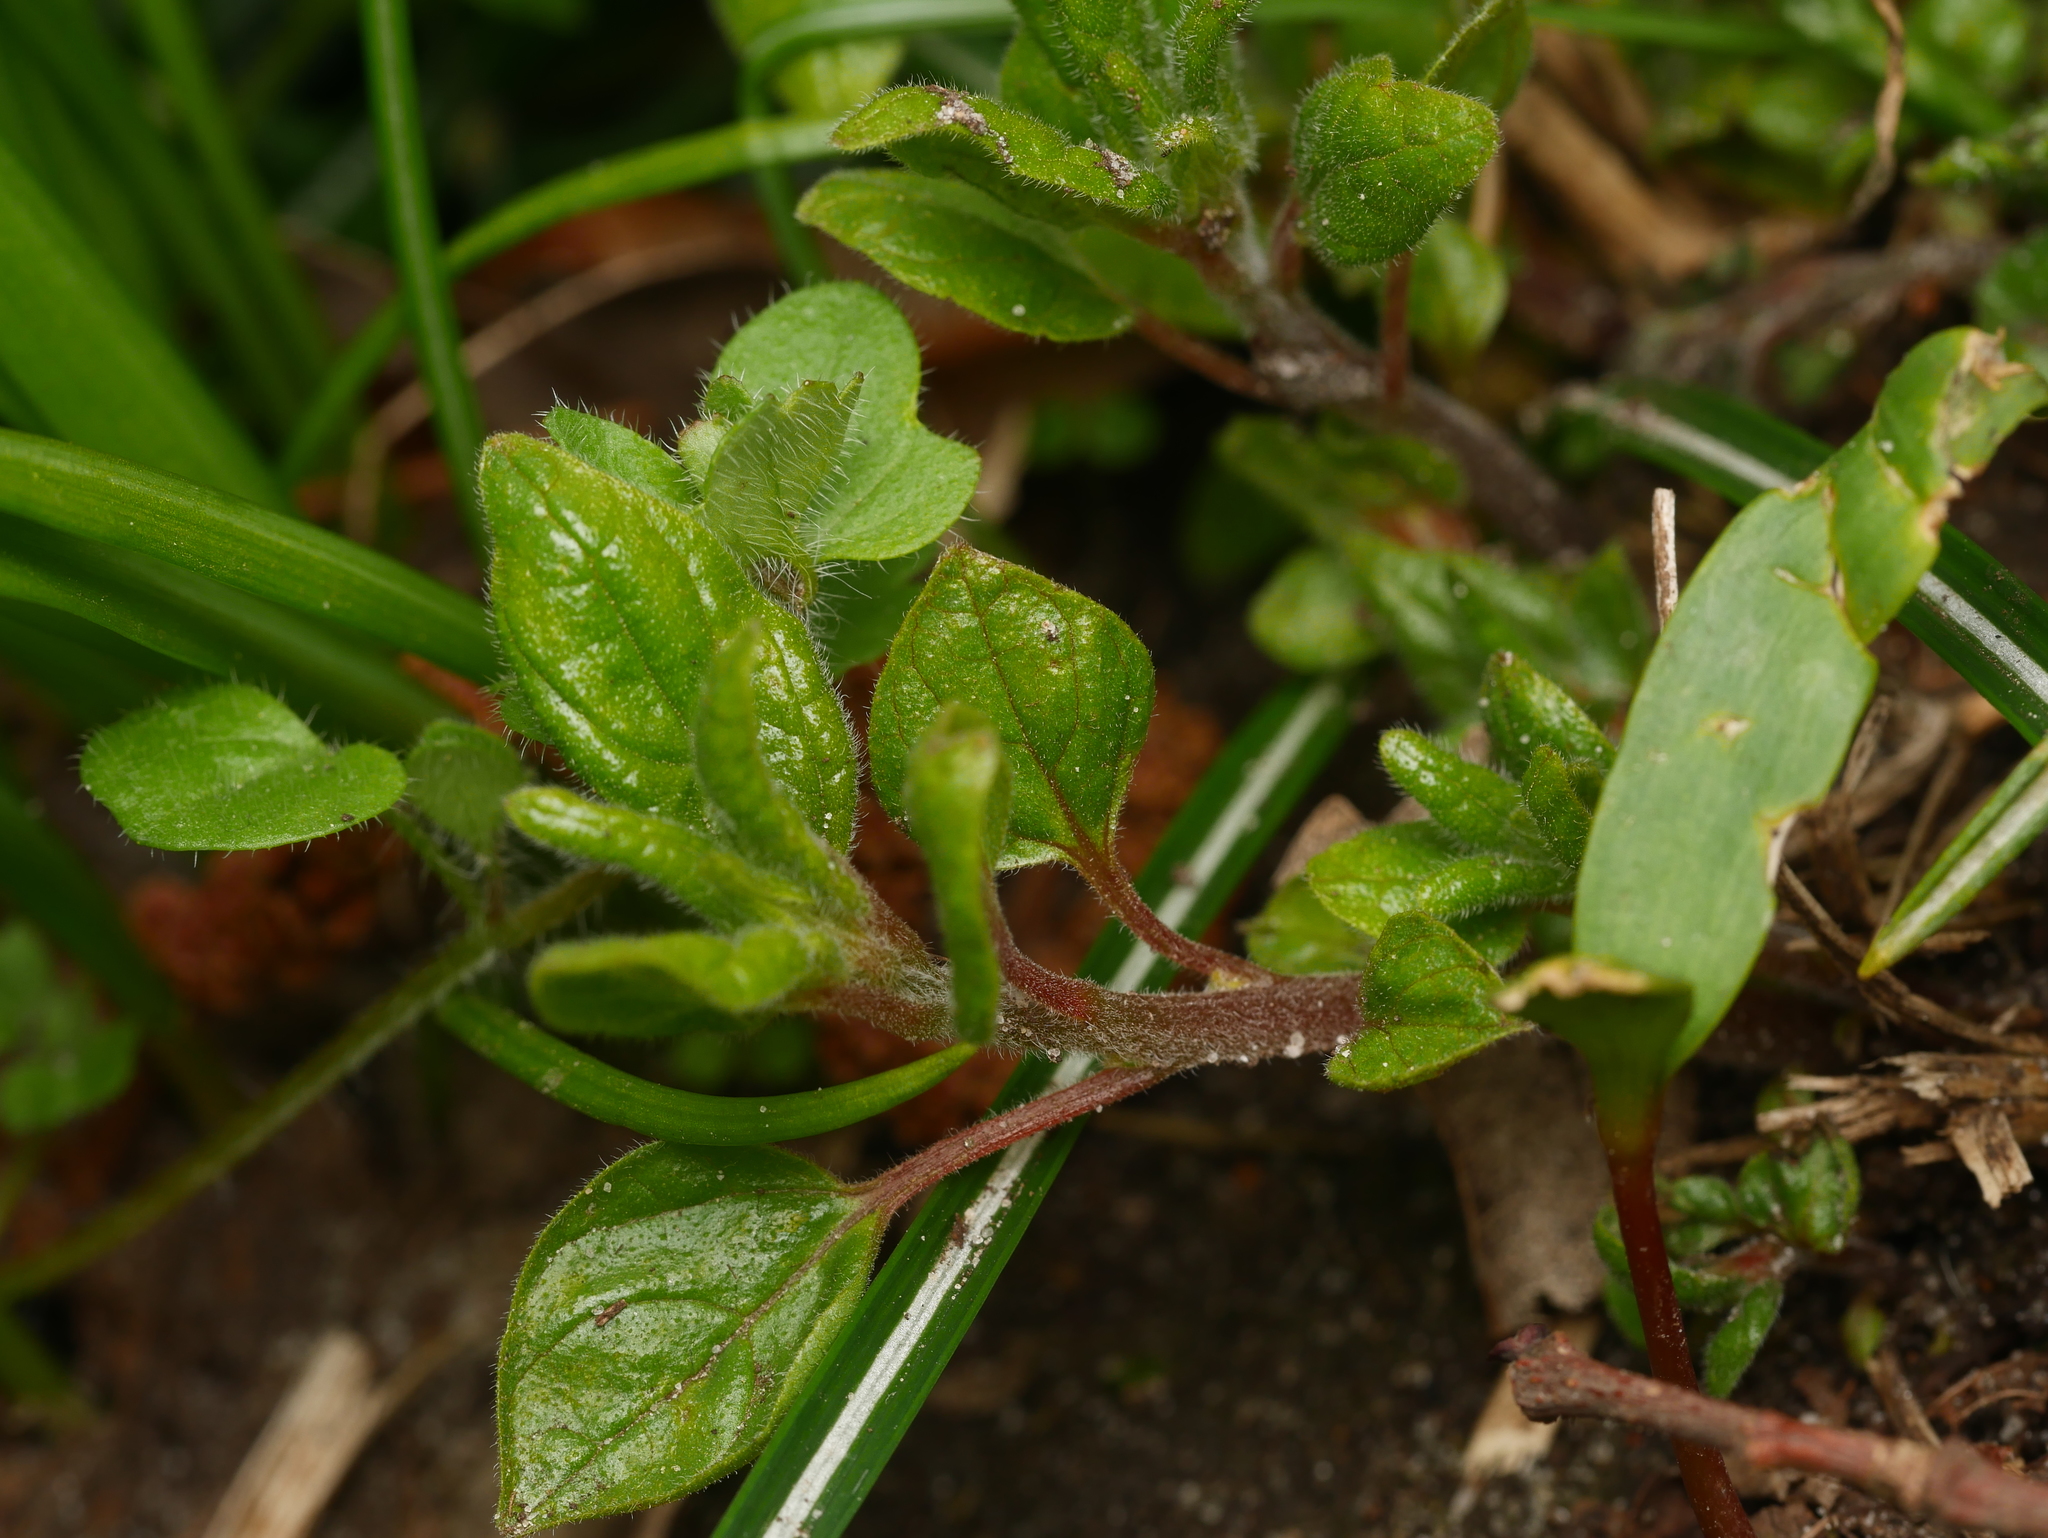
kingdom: Plantae
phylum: Tracheophyta
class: Magnoliopsida
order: Rosales
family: Urticaceae
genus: Parietaria
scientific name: Parietaria judaica
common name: Pellitory-of-the-wall
